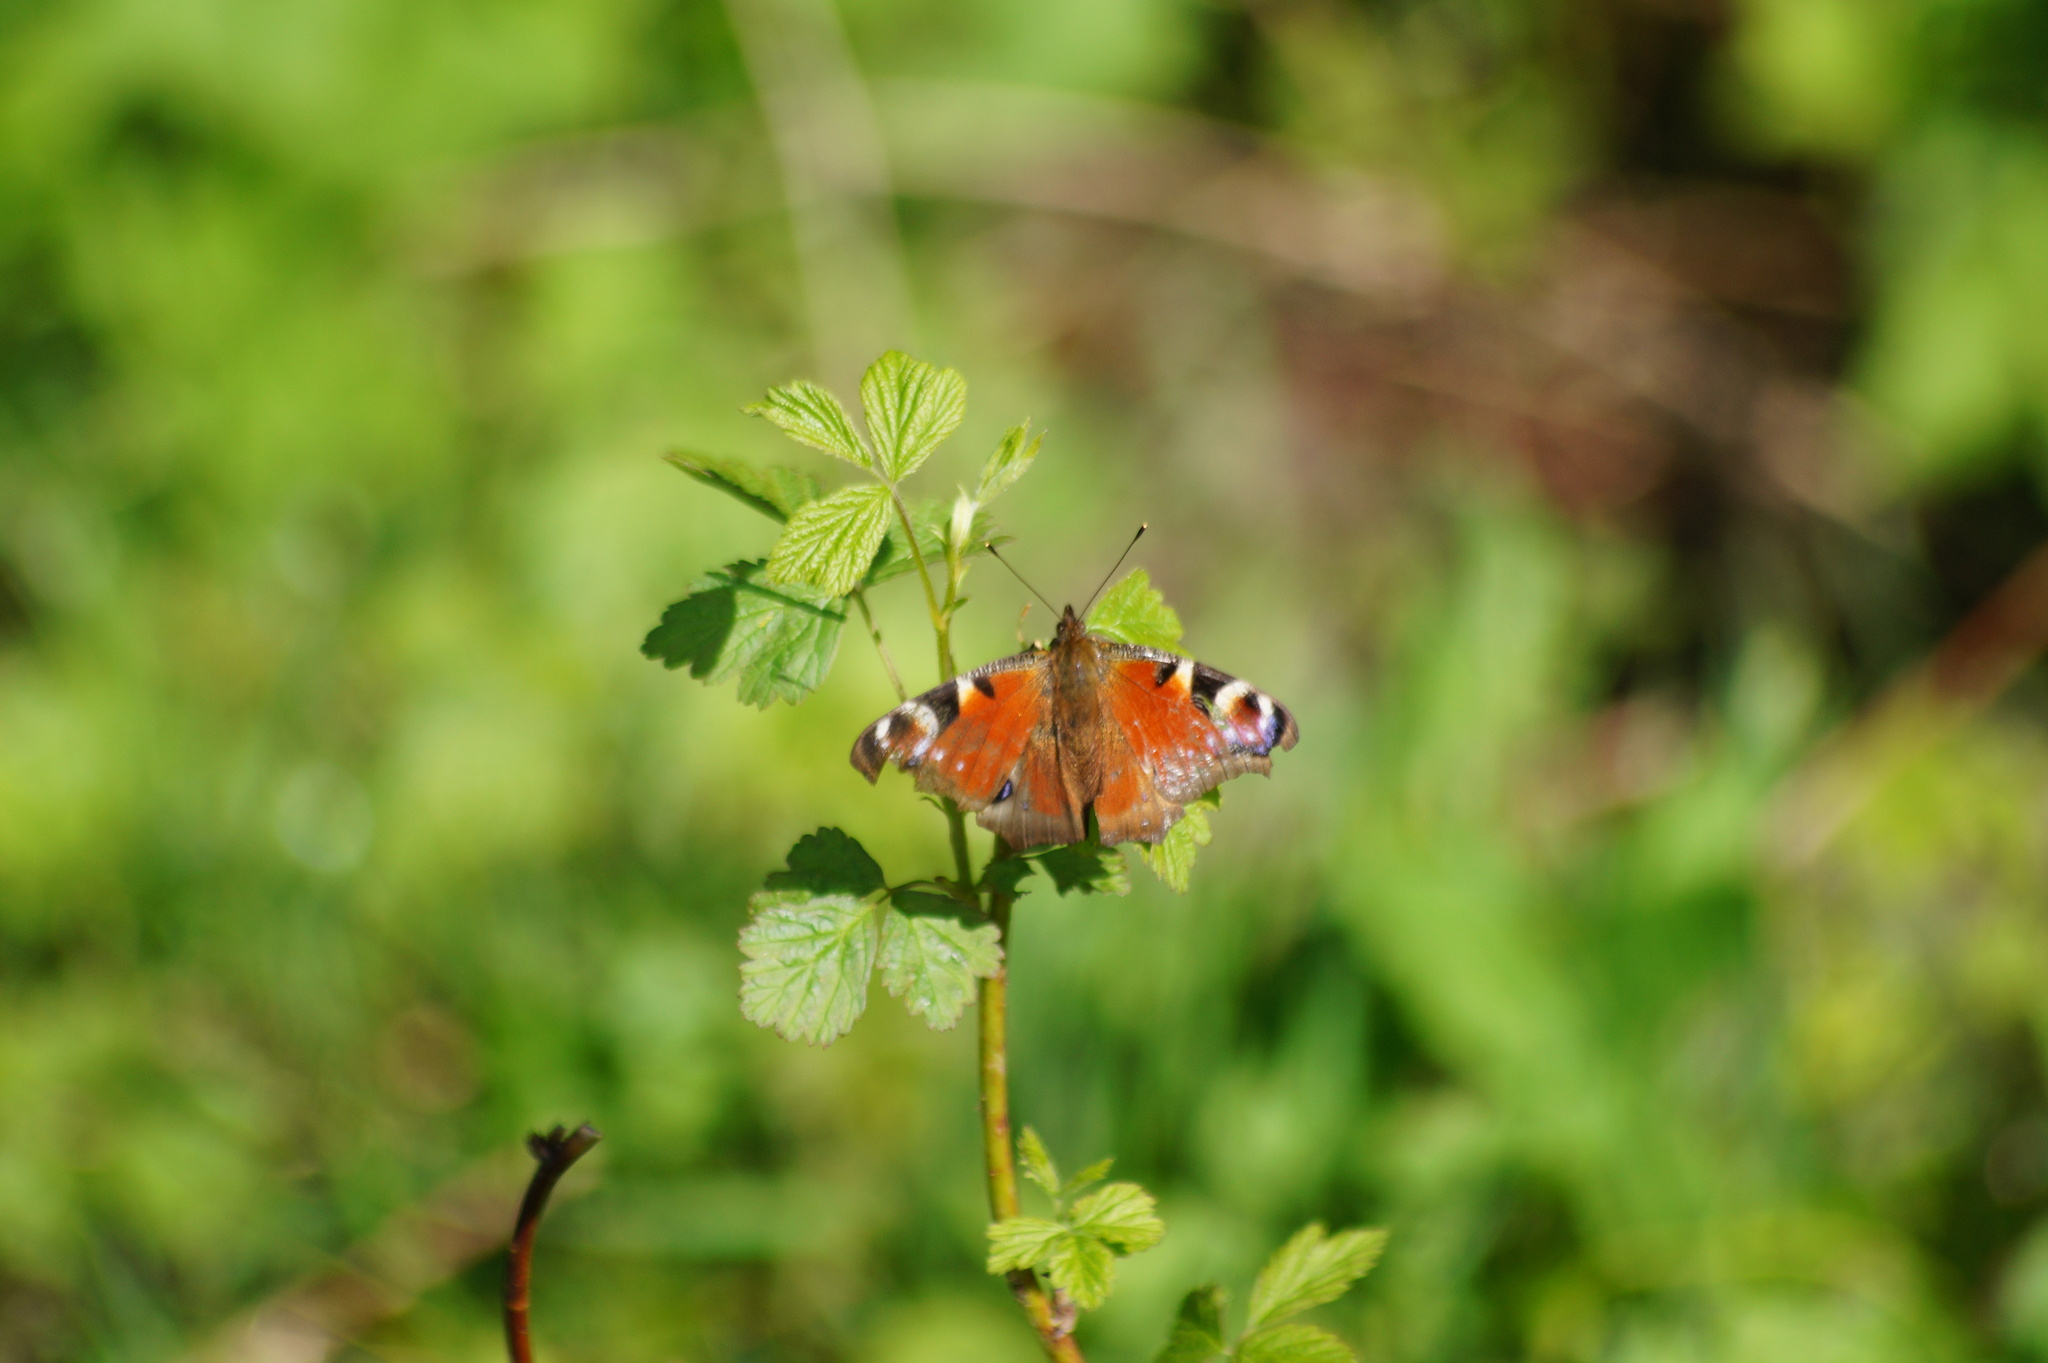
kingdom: Animalia
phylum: Arthropoda
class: Insecta
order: Lepidoptera
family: Nymphalidae
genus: Aglais
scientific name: Aglais io
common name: Peacock
